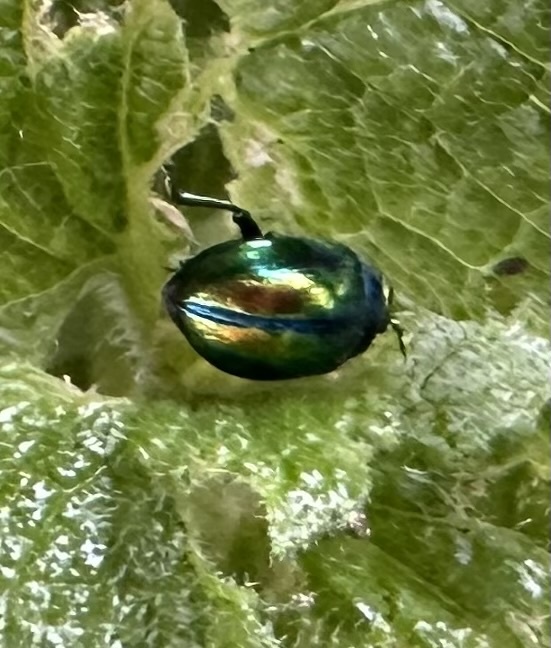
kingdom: Animalia
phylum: Arthropoda
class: Insecta
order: Coleoptera
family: Chrysomelidae
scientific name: Chrysomelidae
